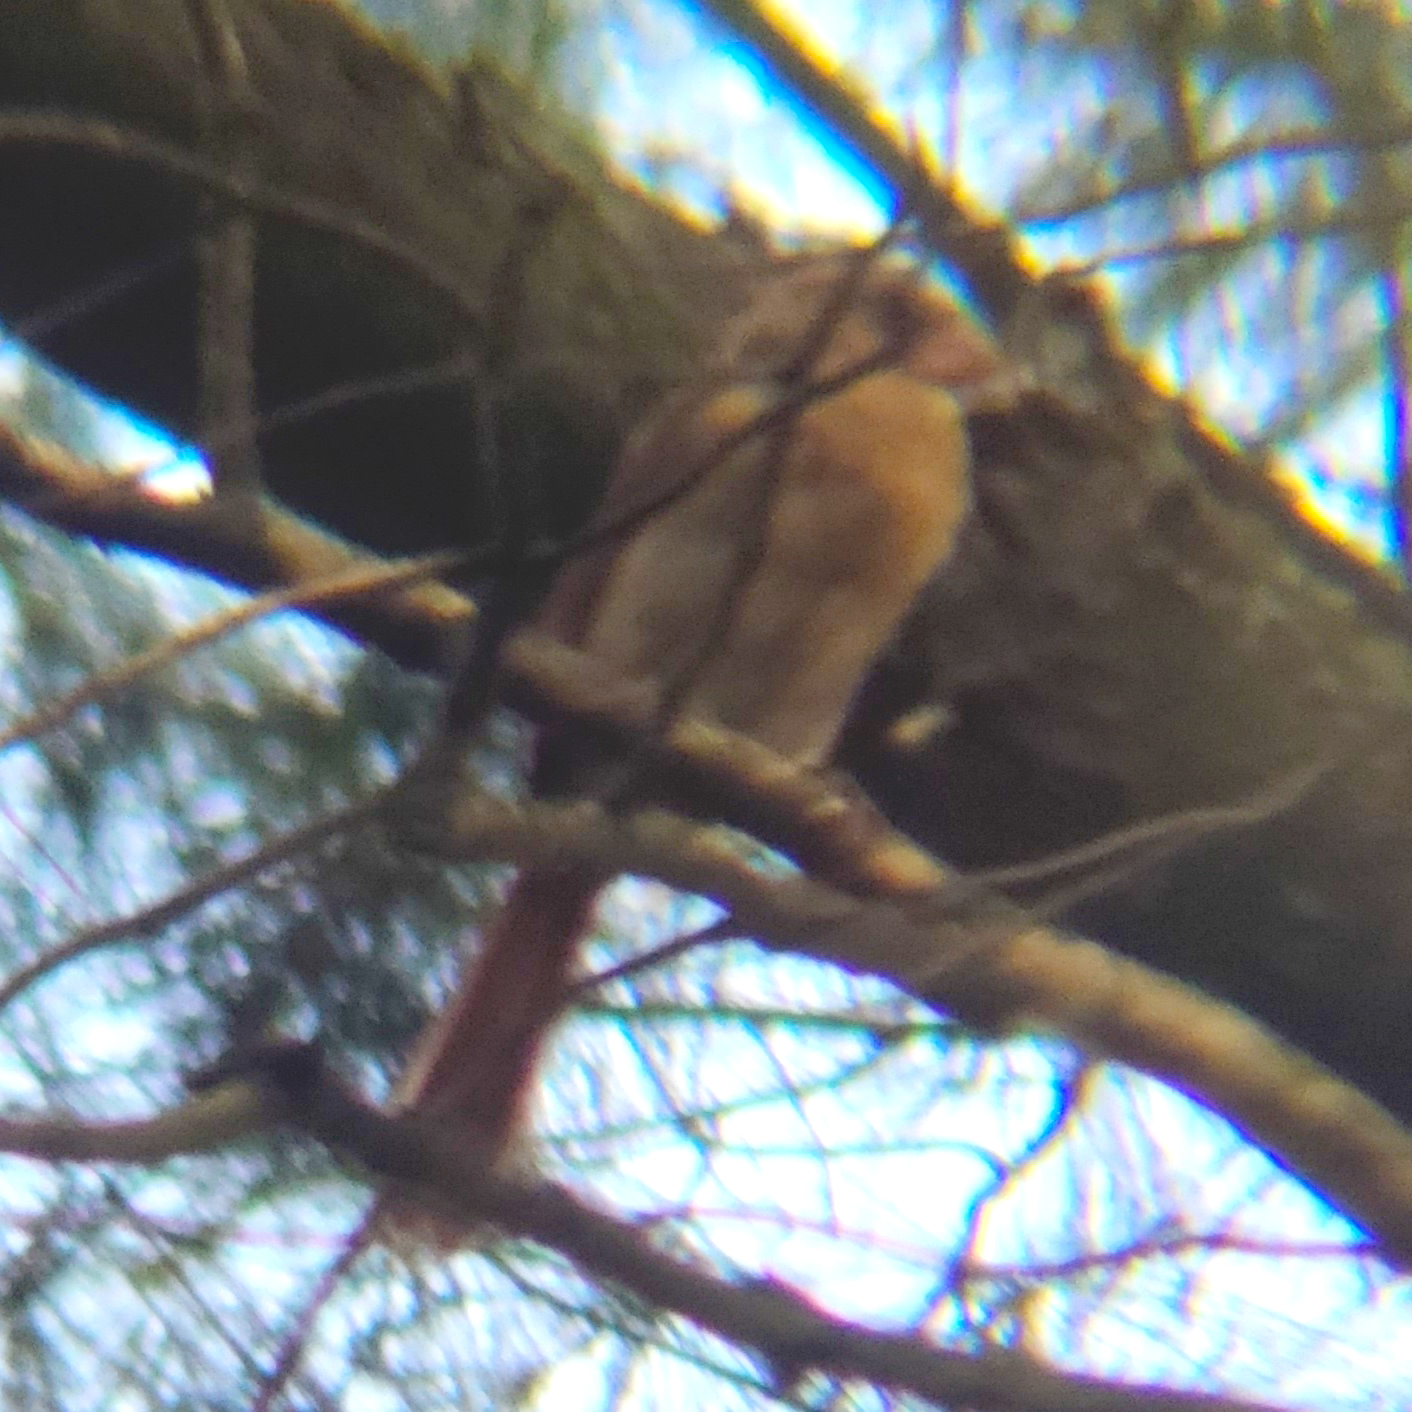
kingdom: Animalia
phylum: Chordata
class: Aves
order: Passeriformes
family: Cardinalidae
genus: Cardinalis
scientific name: Cardinalis cardinalis
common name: Northern cardinal
